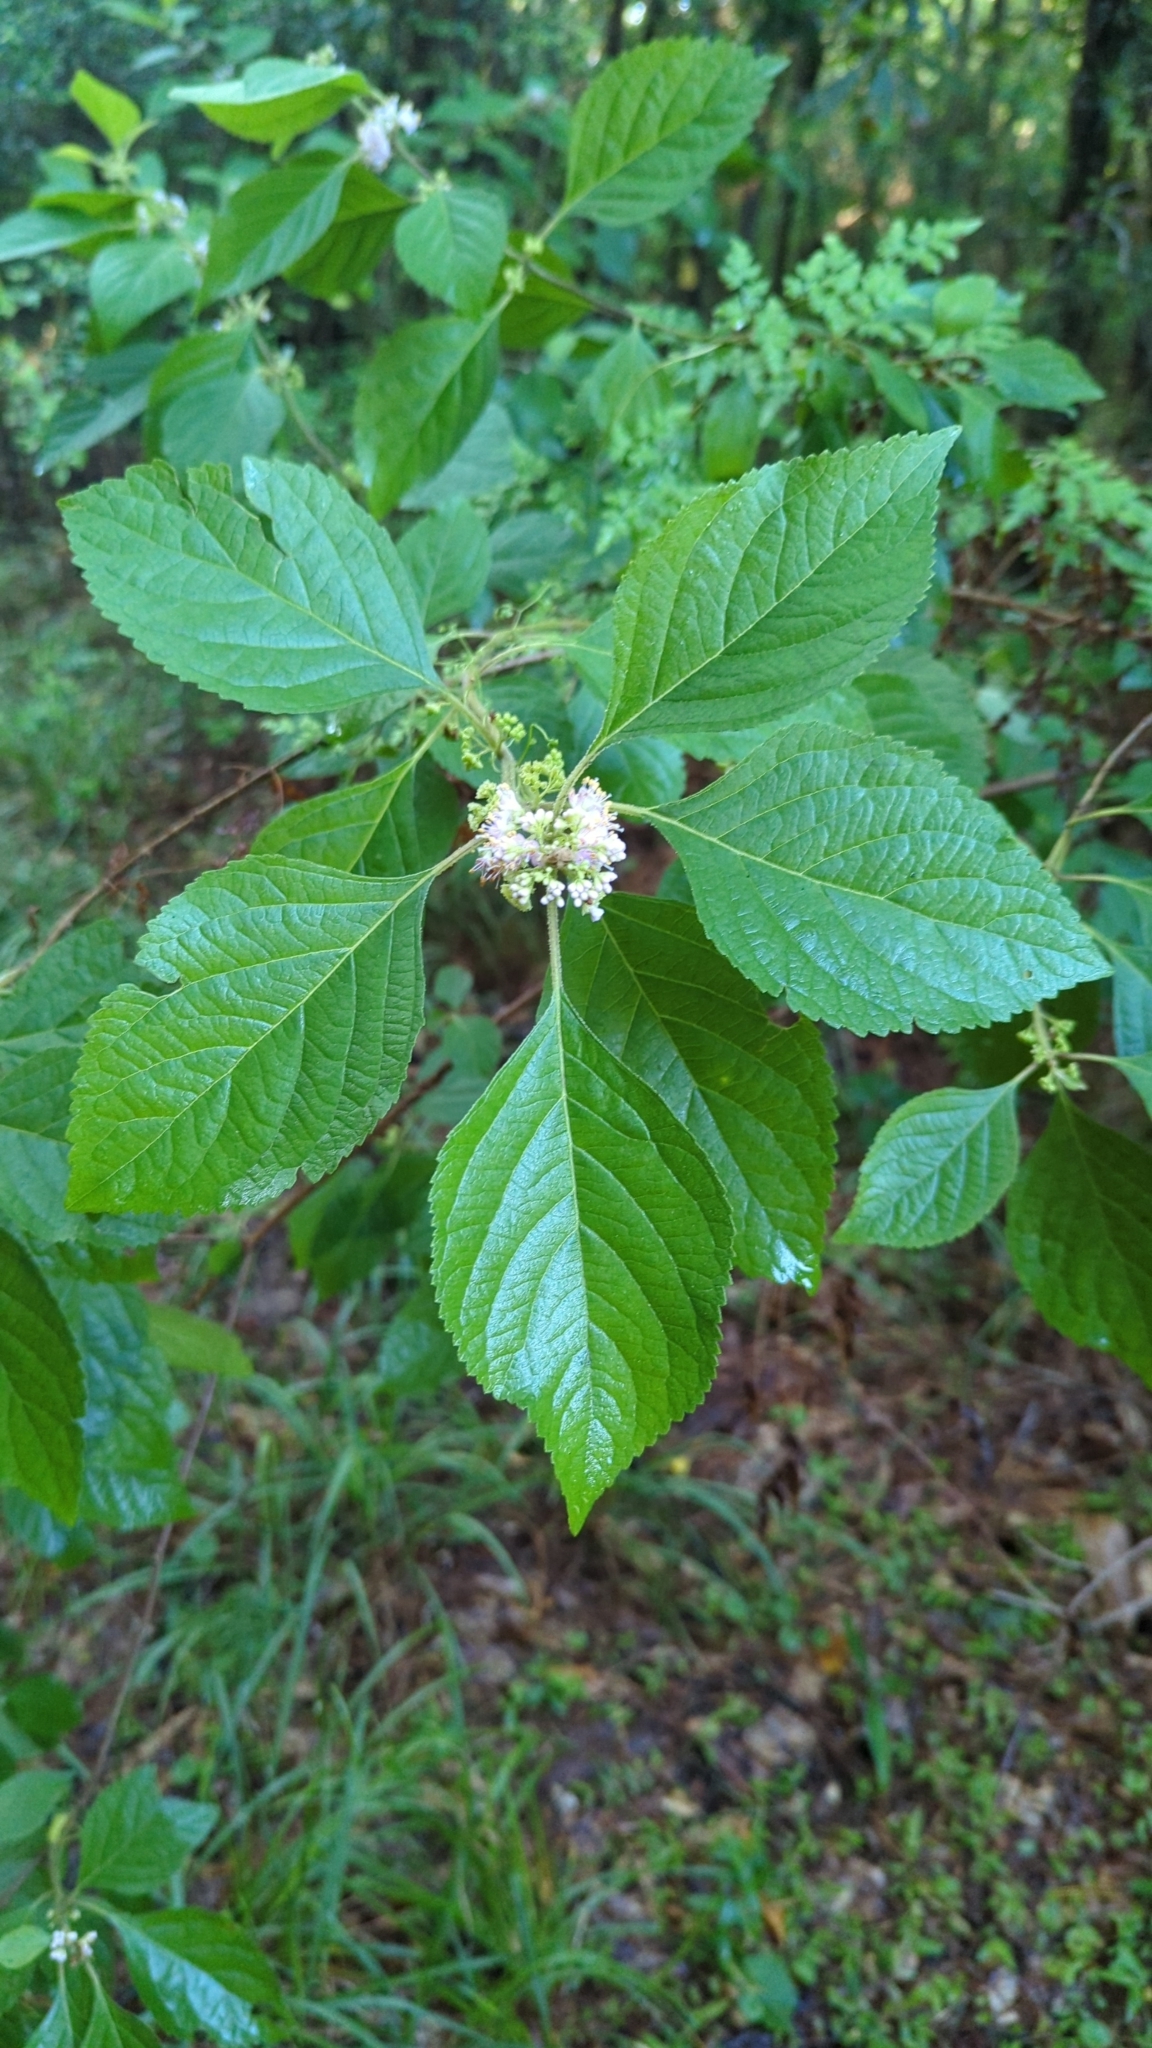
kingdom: Plantae
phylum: Tracheophyta
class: Magnoliopsida
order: Lamiales
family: Lamiaceae
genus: Callicarpa
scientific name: Callicarpa americana
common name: American beautyberry
